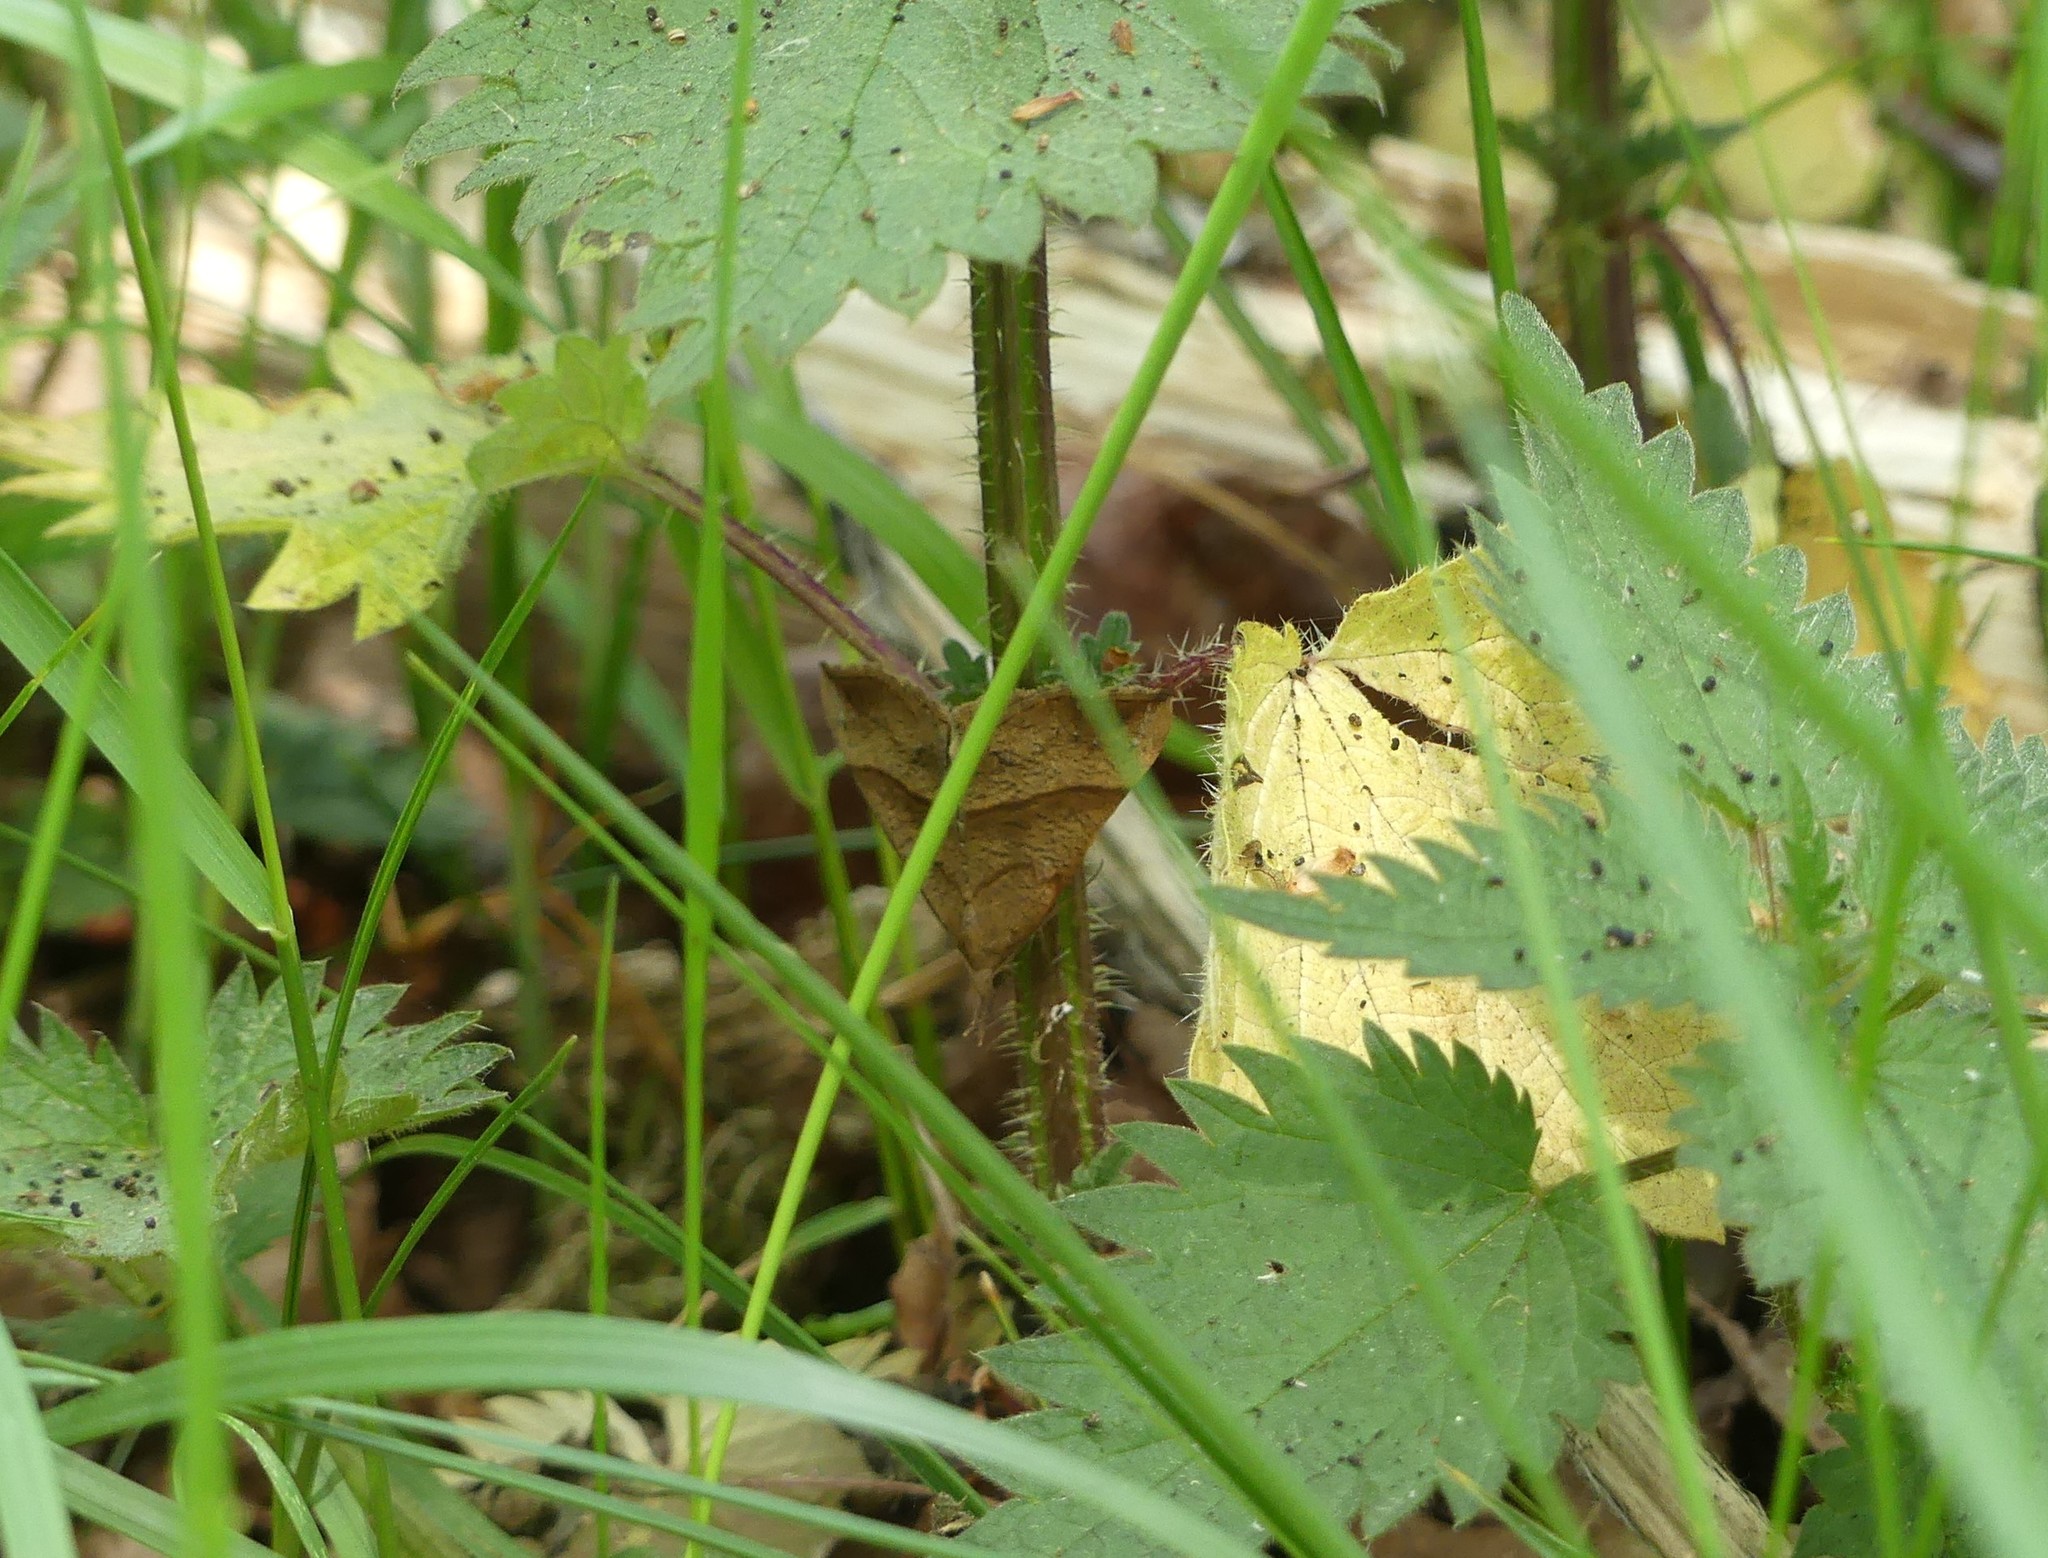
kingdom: Animalia
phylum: Arthropoda
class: Insecta
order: Lepidoptera
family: Erebidae
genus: Hypena
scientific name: Hypena proboscidalis
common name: Snout
